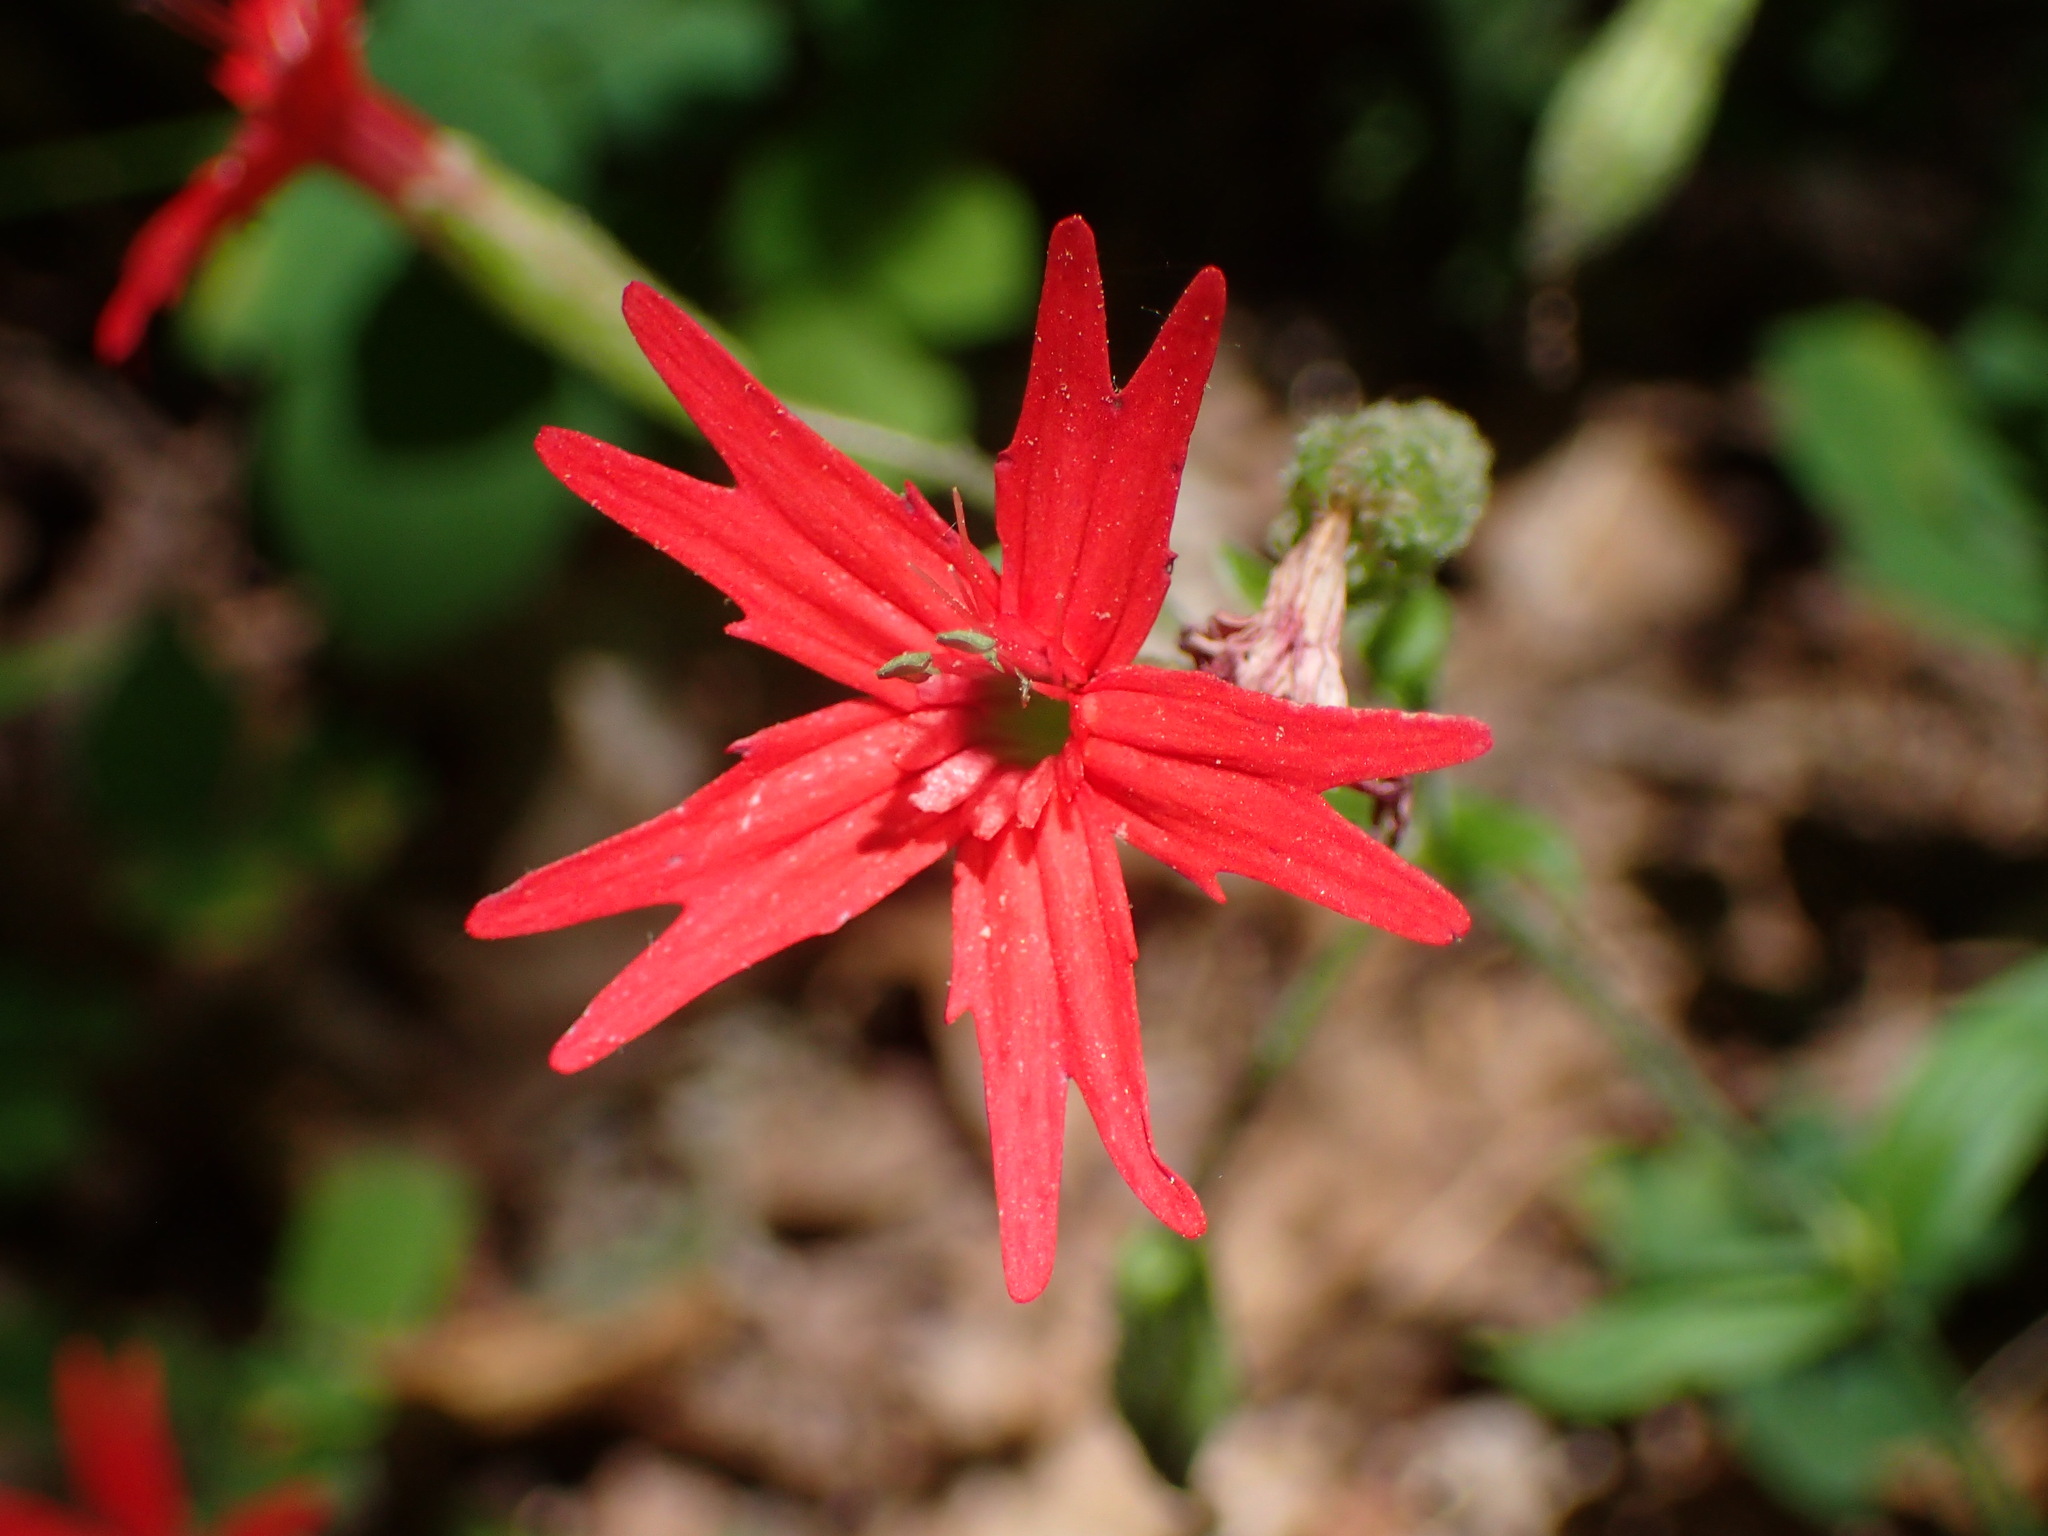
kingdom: Plantae
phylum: Tracheophyta
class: Magnoliopsida
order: Caryophyllales
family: Caryophyllaceae
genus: Silene
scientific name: Silene virginica
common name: Fire-pink
